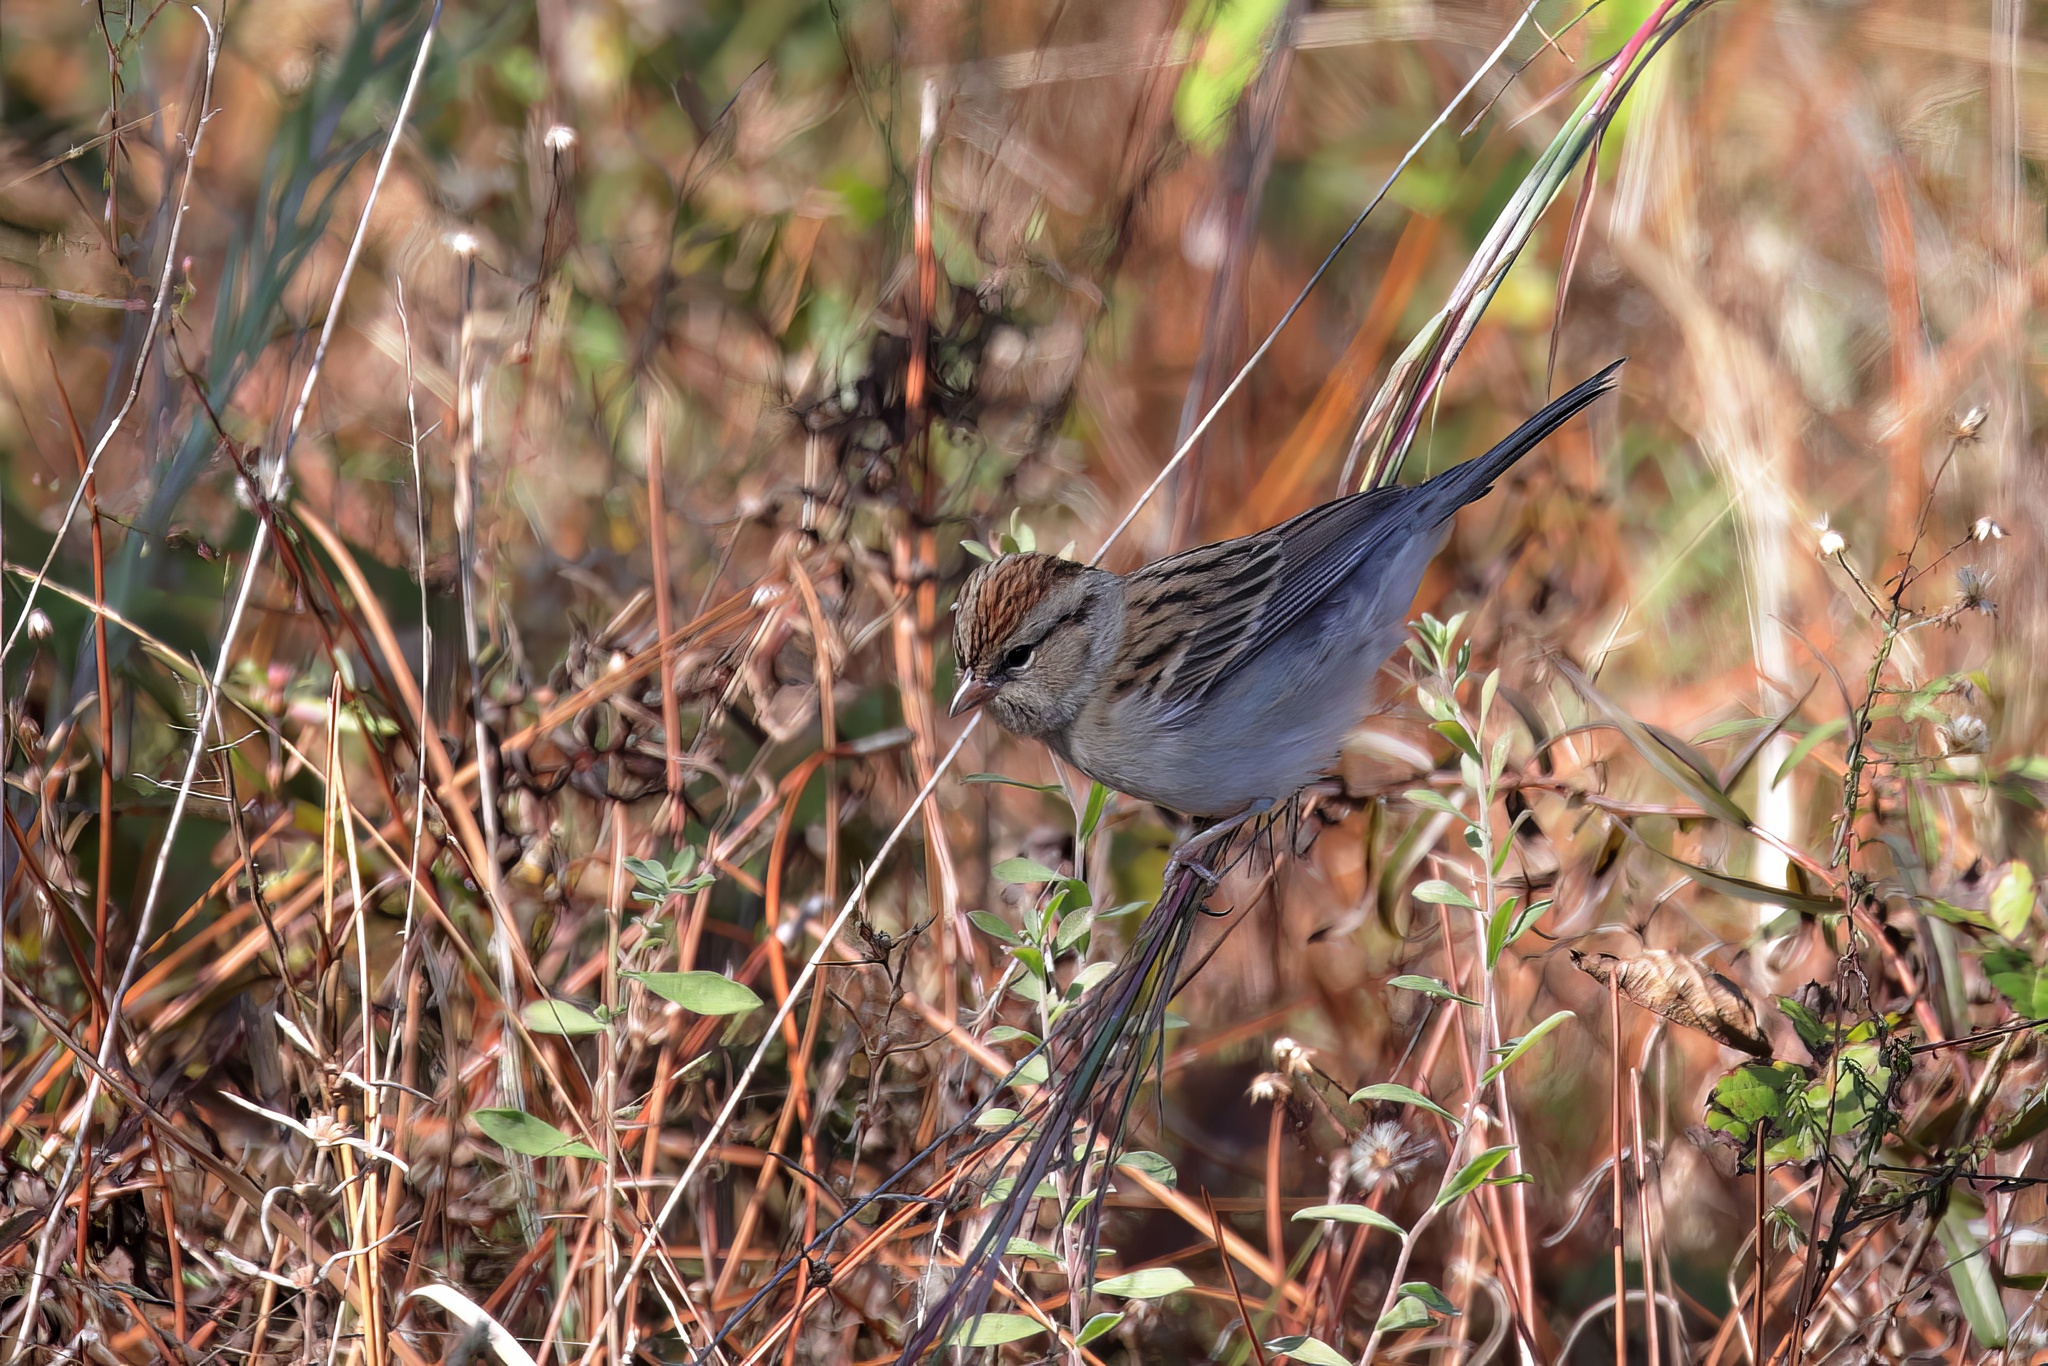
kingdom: Animalia
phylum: Chordata
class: Aves
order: Passeriformes
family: Passerellidae
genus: Spizella
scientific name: Spizella passerina
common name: Chipping sparrow
